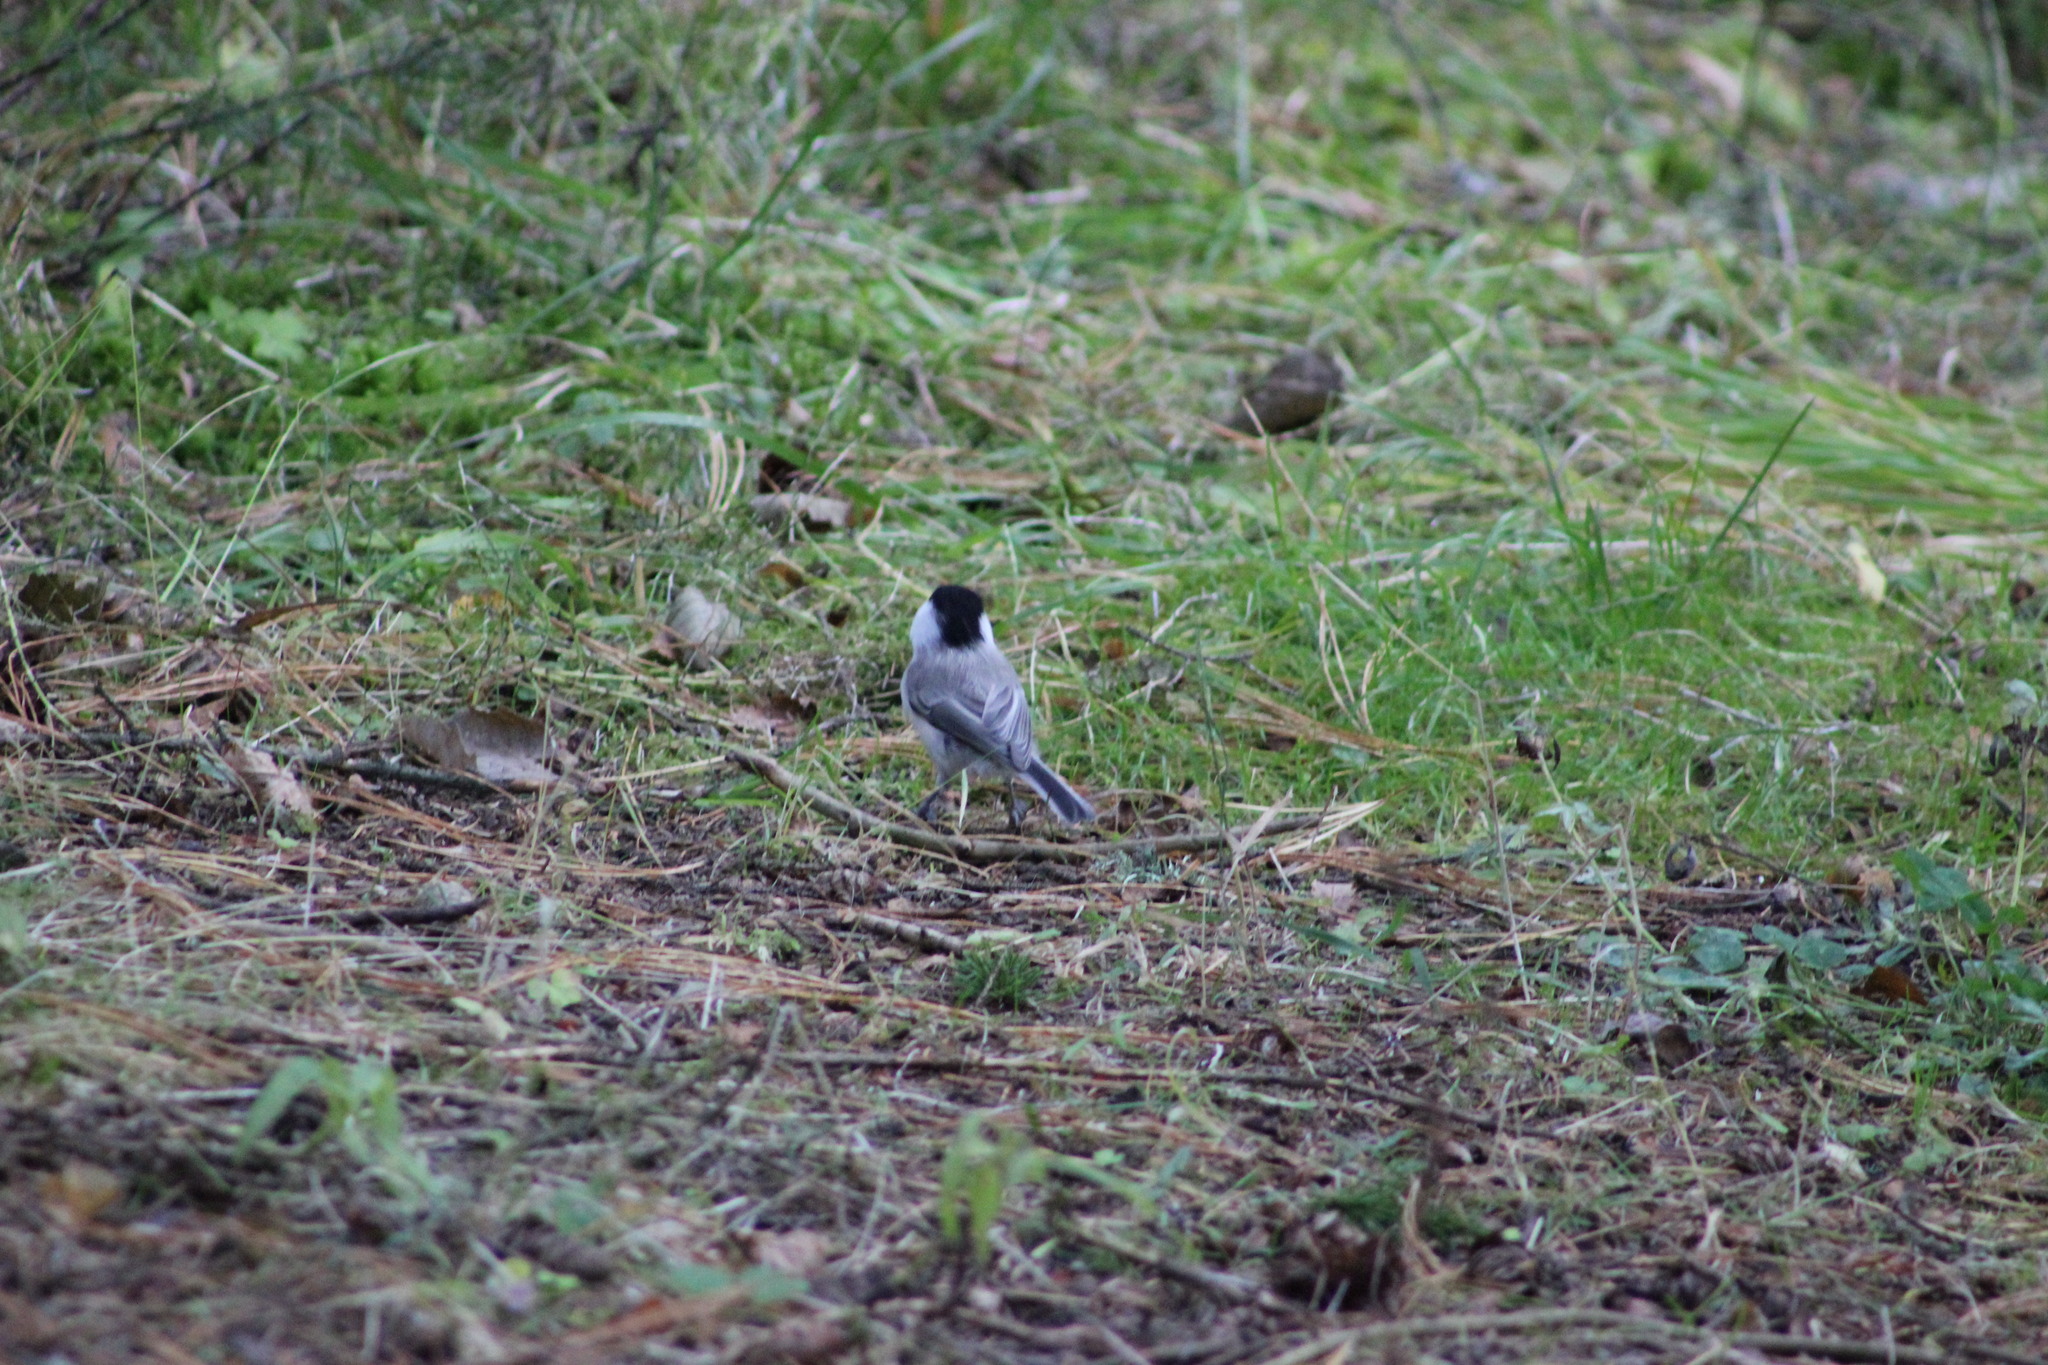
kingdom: Animalia
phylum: Chordata
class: Aves
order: Passeriformes
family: Paridae
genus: Poecile
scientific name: Poecile montanus
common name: Willow tit
